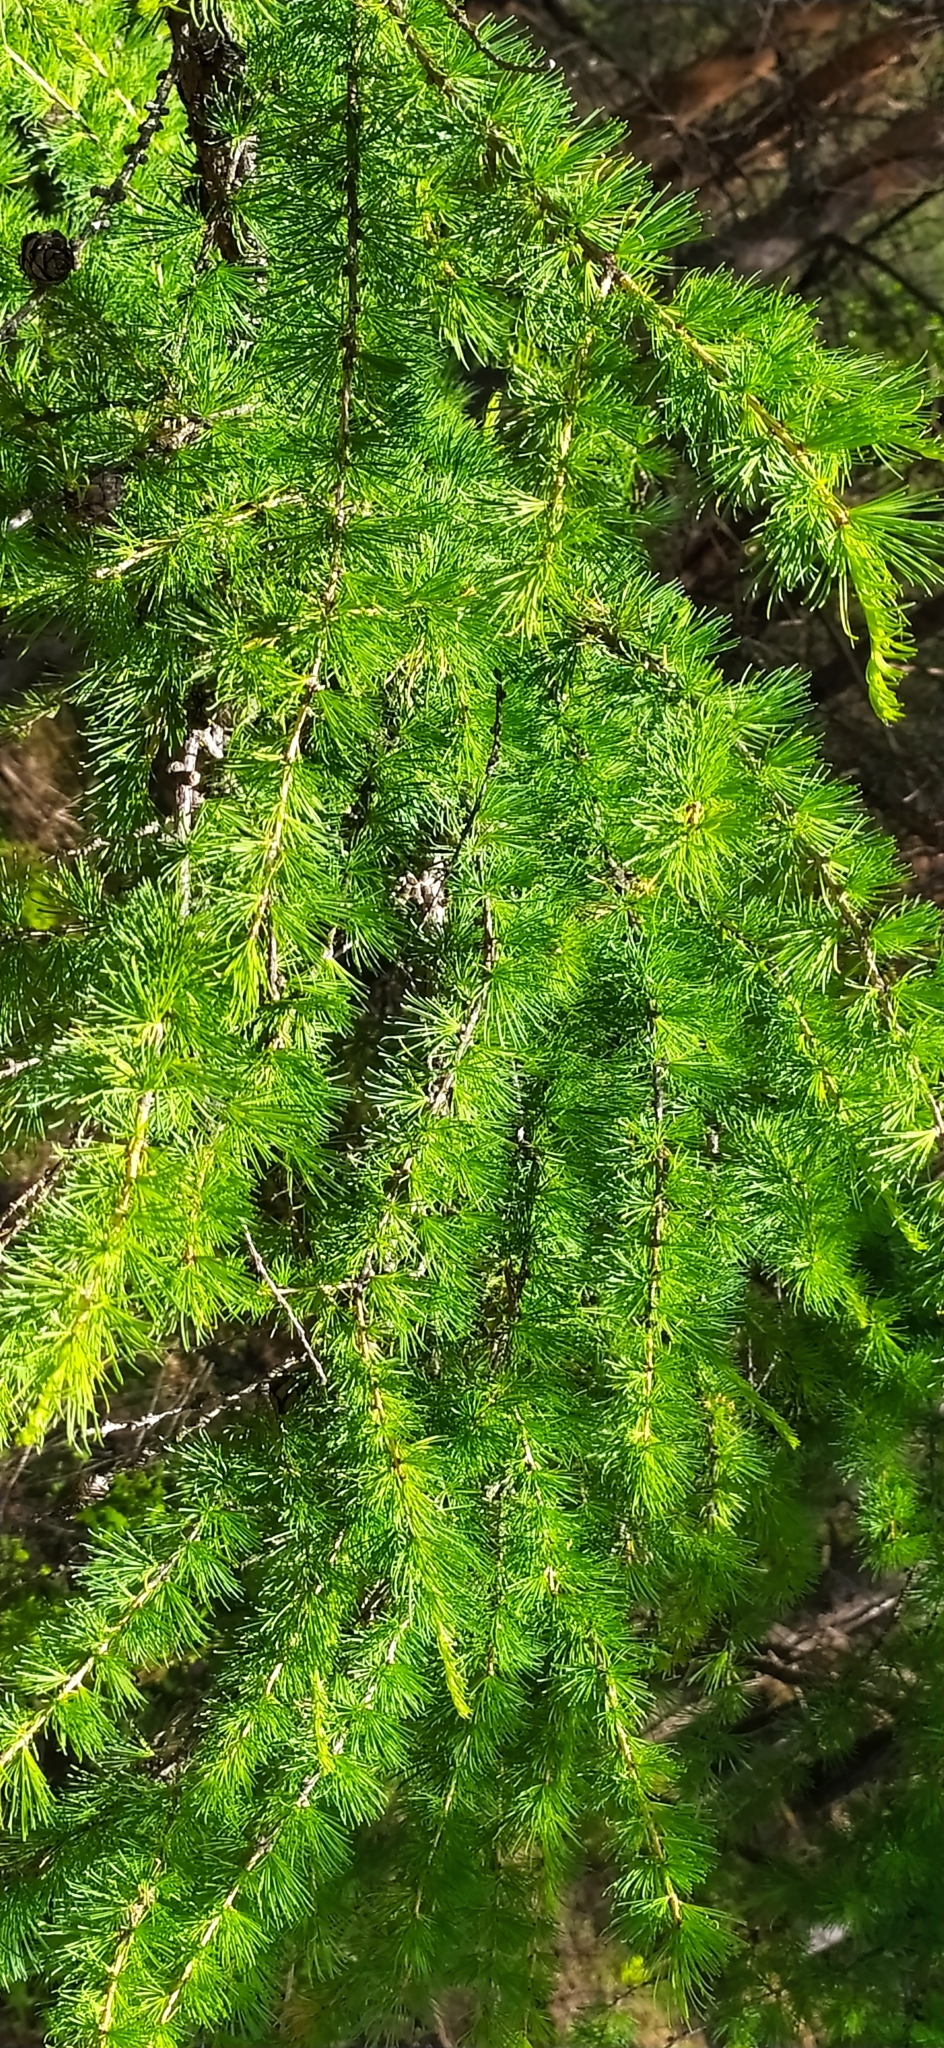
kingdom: Plantae
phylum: Tracheophyta
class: Pinopsida
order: Pinales
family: Pinaceae
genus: Larix
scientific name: Larix sibirica
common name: Siberian larch
